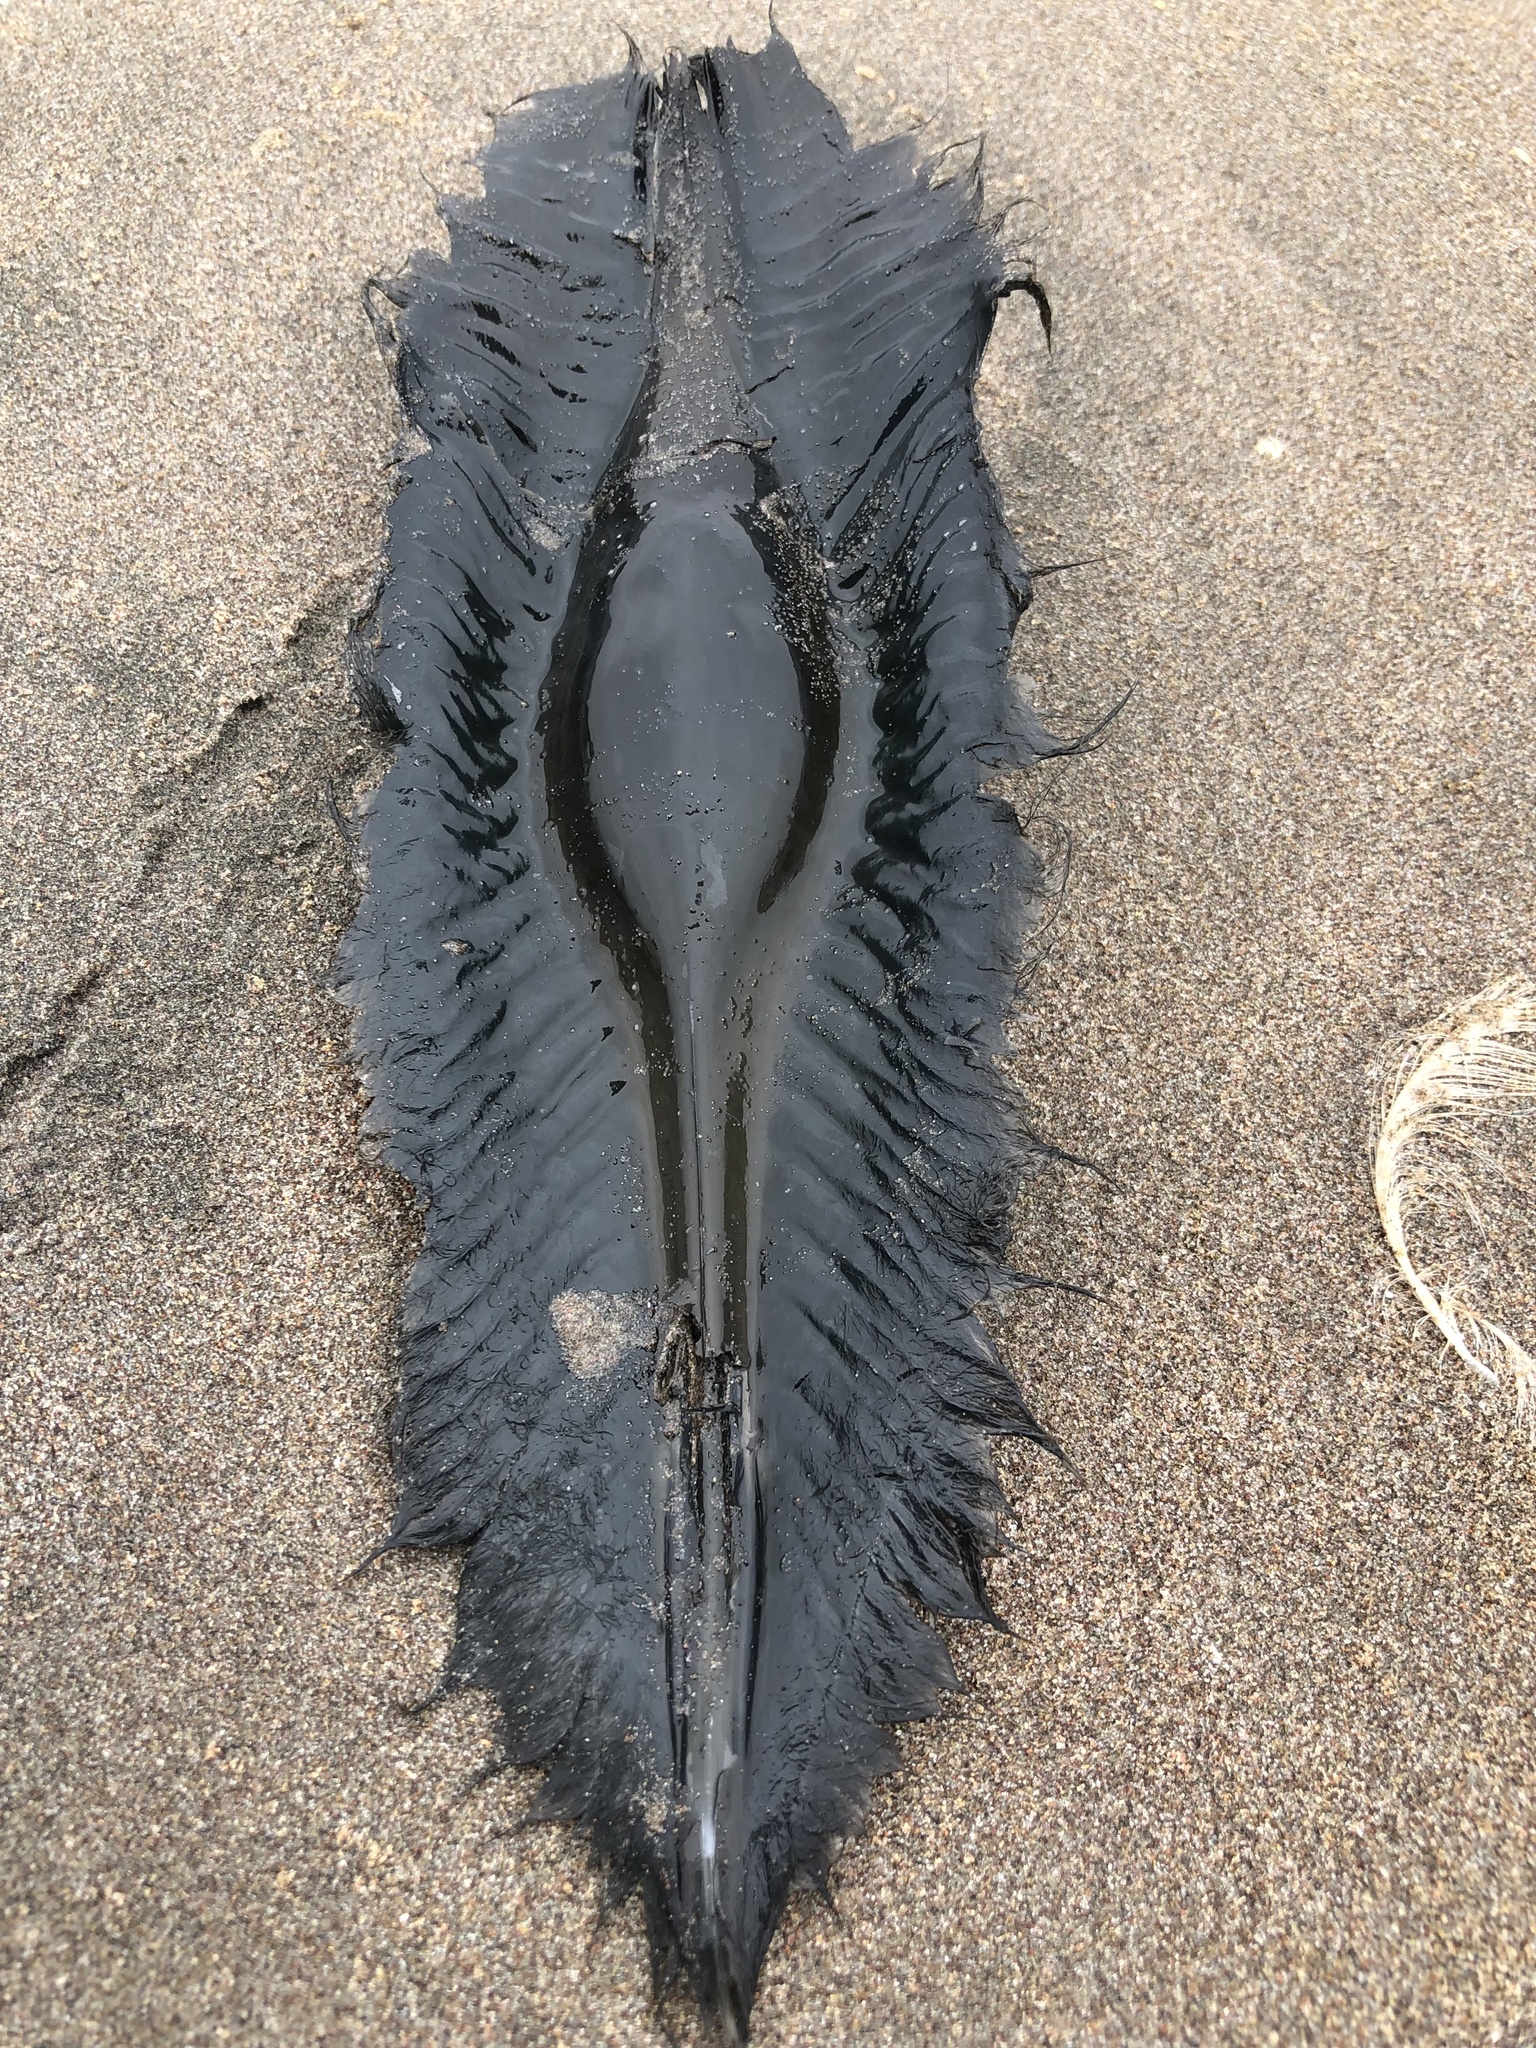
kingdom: Animalia
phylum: Chordata
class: Holocephali
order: Chimaeriformes
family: Callorhinchidae
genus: Callorhinchus
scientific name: Callorhinchus callorynchus
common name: Elephant fish
